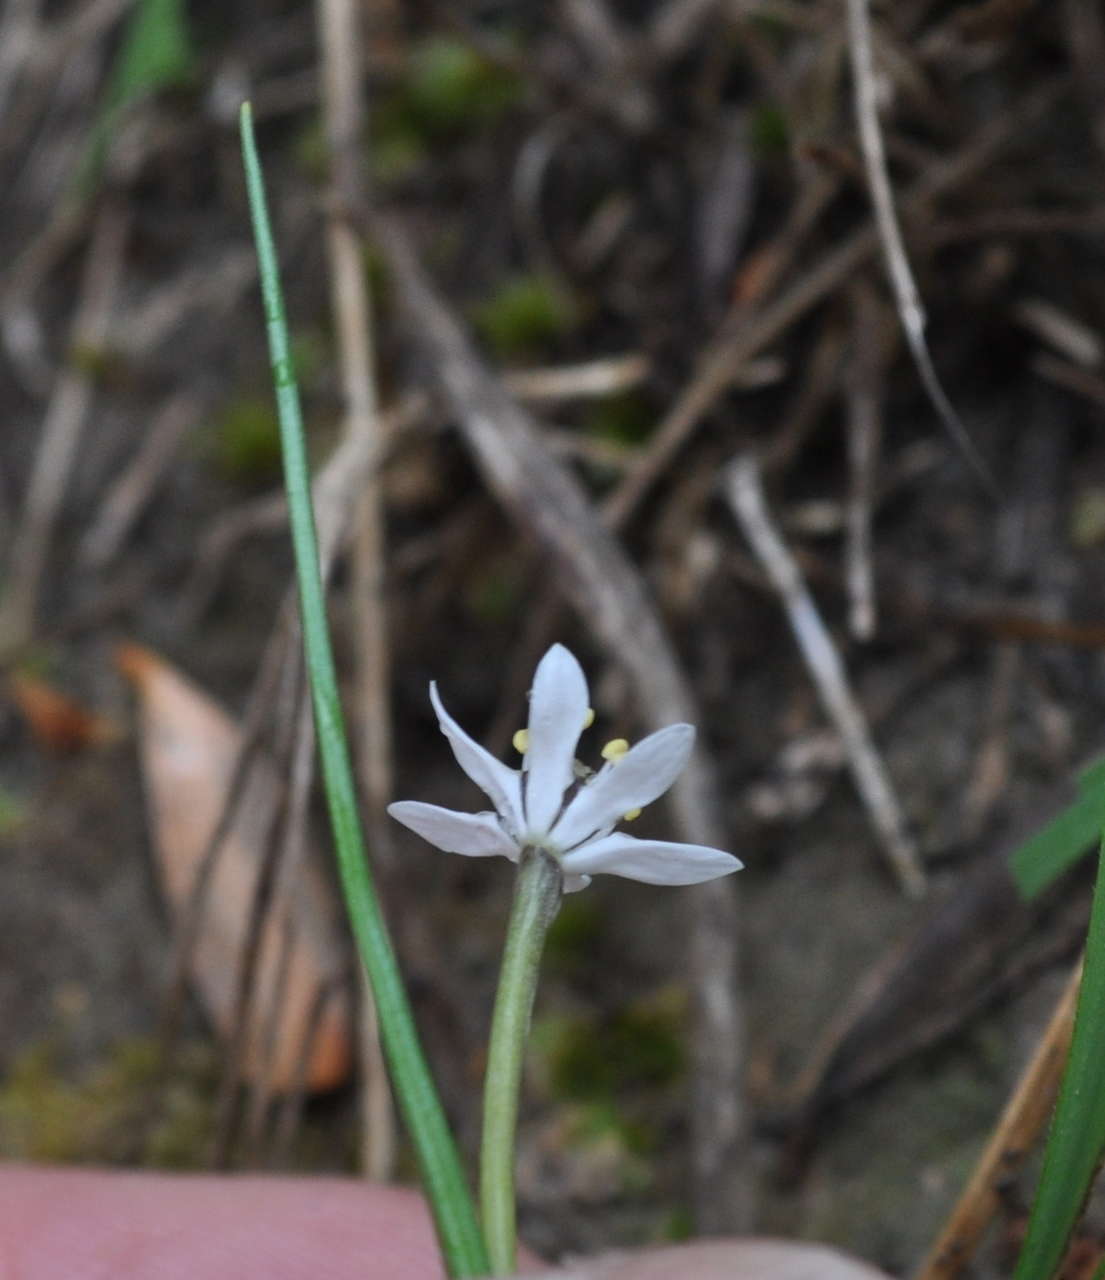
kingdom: Plantae
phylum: Tracheophyta
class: Liliopsida
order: Liliales
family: Colchicaceae
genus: Wurmbea
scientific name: Wurmbea uniflora
